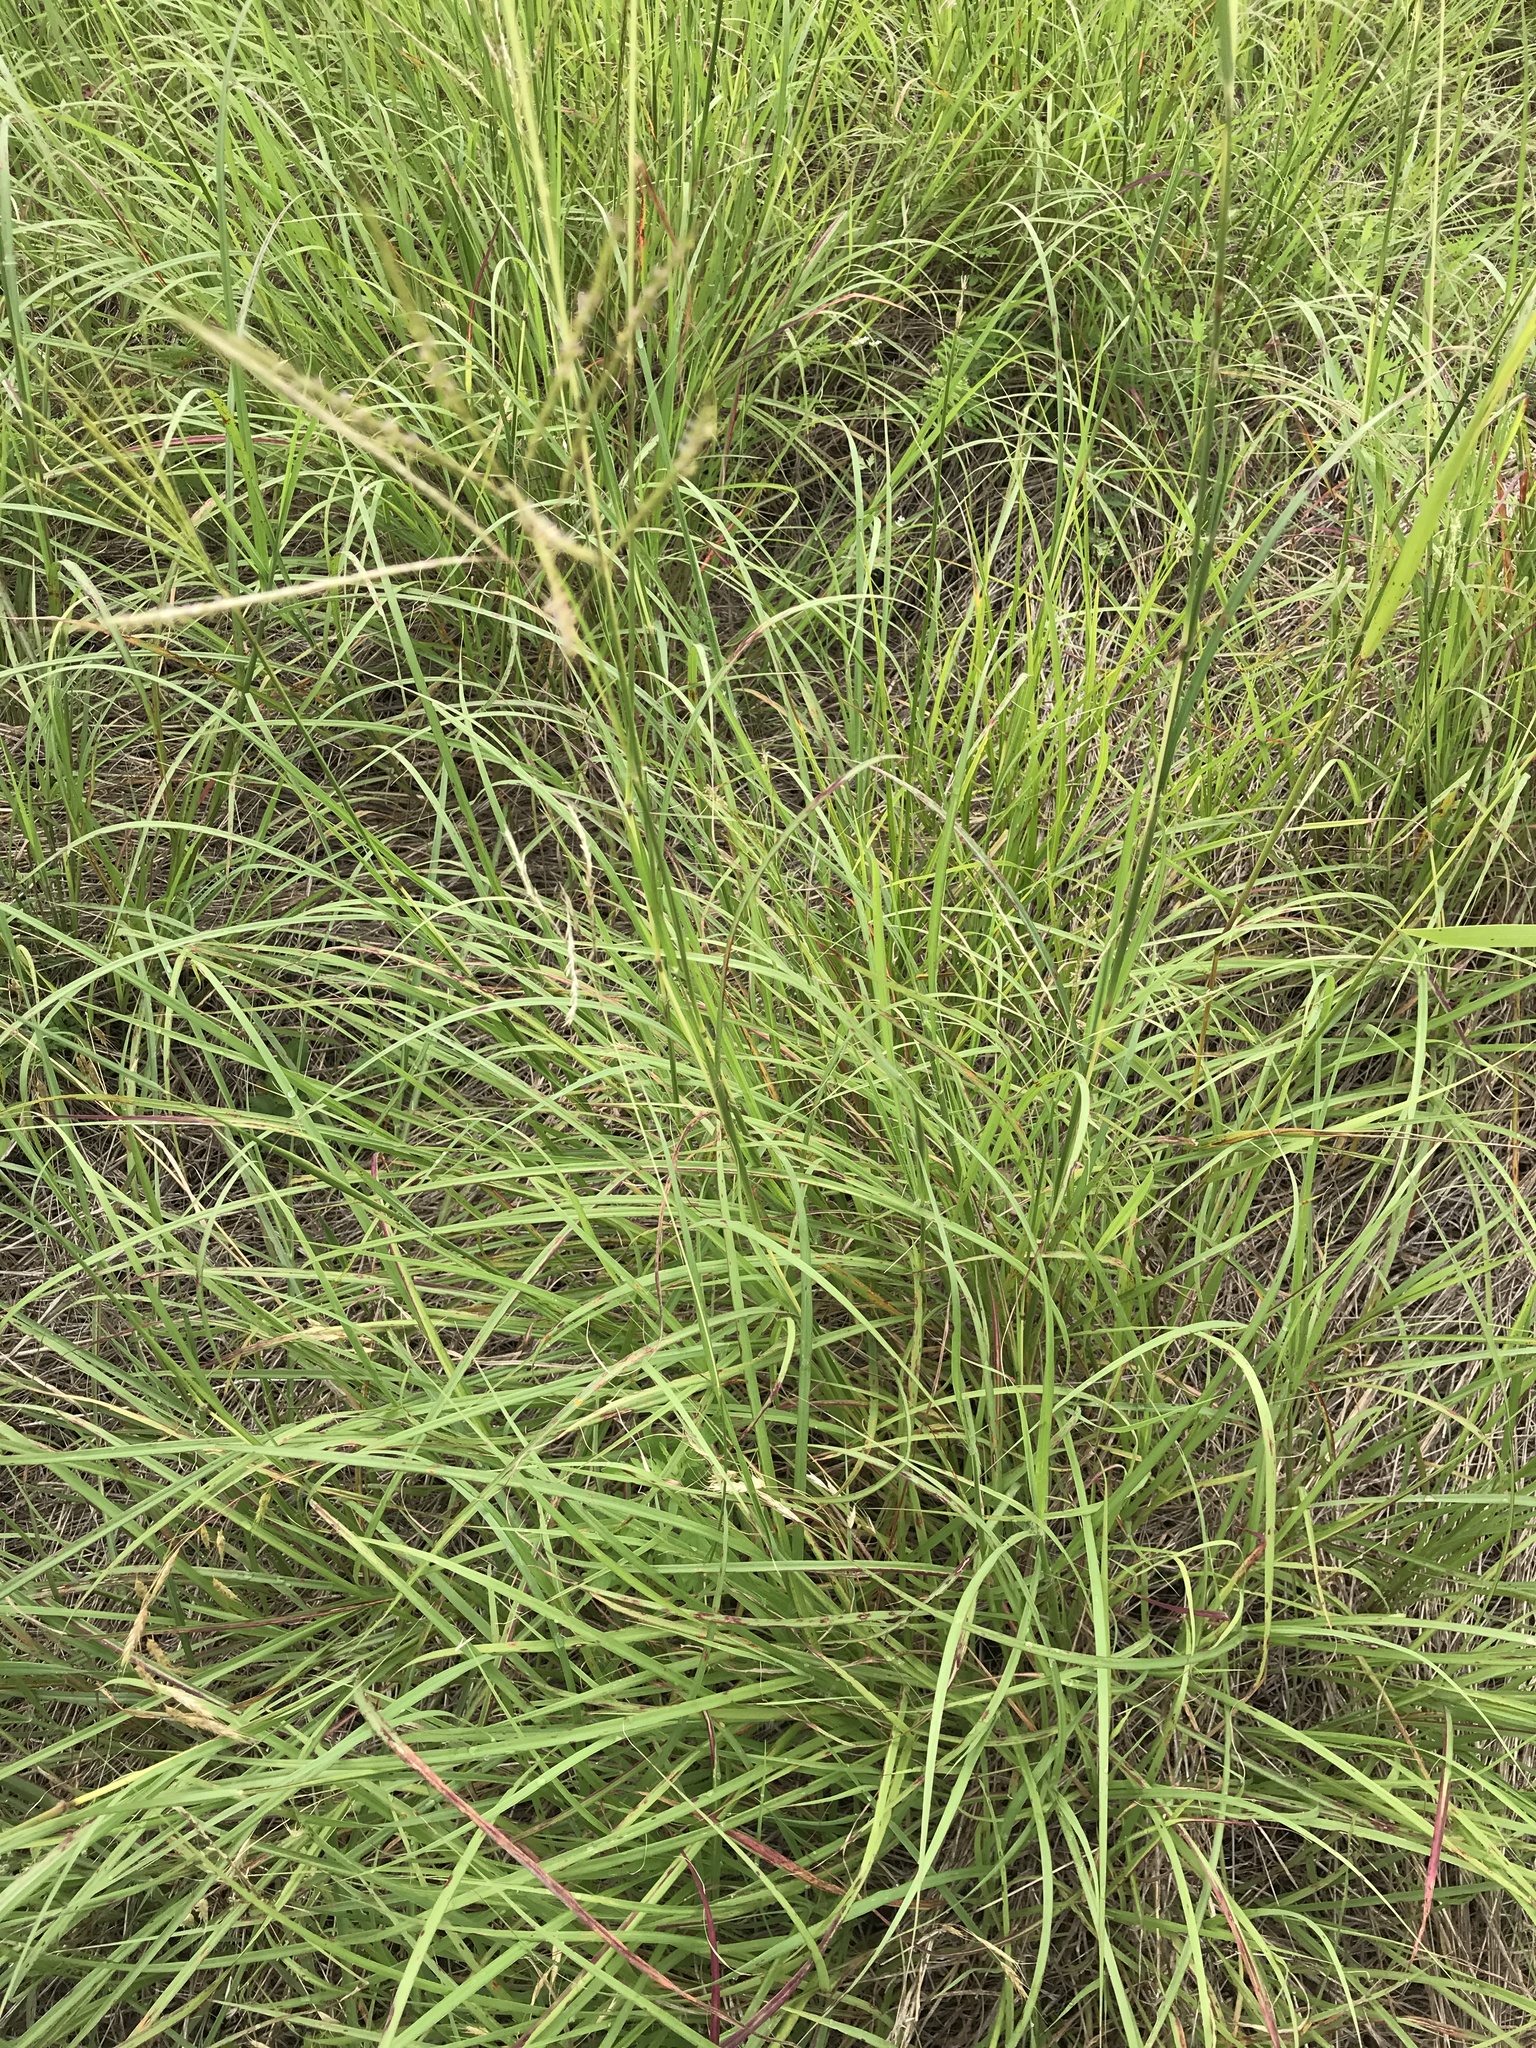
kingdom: Plantae
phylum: Tracheophyta
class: Liliopsida
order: Poales
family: Poaceae
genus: Bothriochloa
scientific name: Bothriochloa ischaemum
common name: Yellow bluestem
